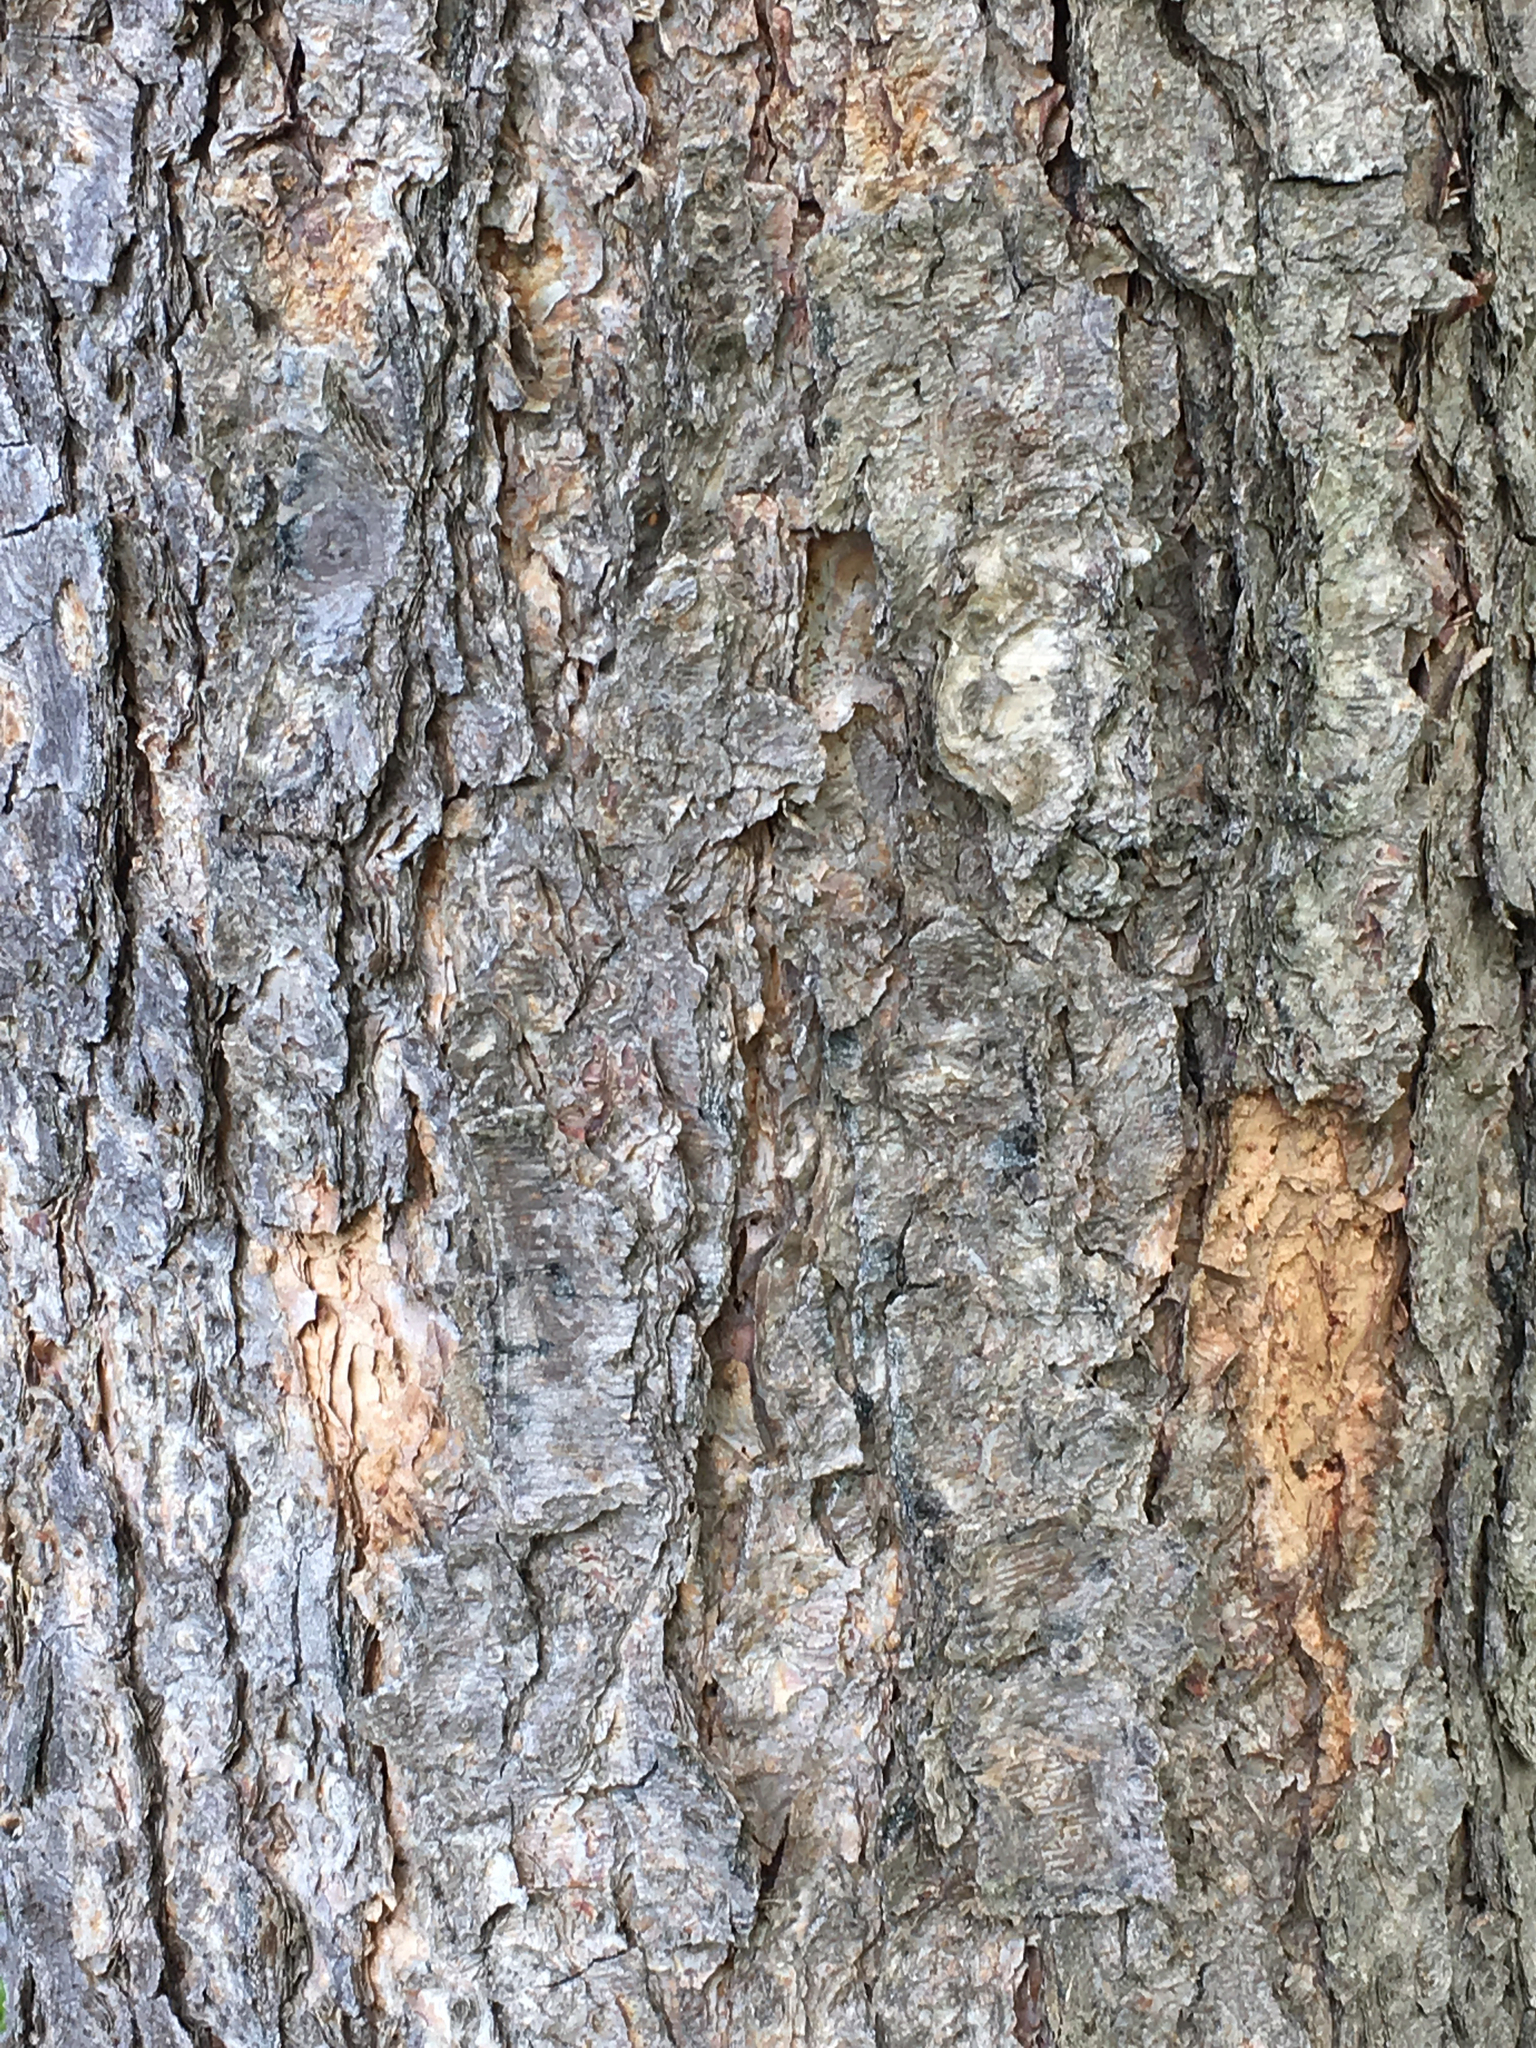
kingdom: Plantae
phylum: Tracheophyta
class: Magnoliopsida
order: Fagales
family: Betulaceae
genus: Betula
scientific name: Betula nigra
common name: Black birch
